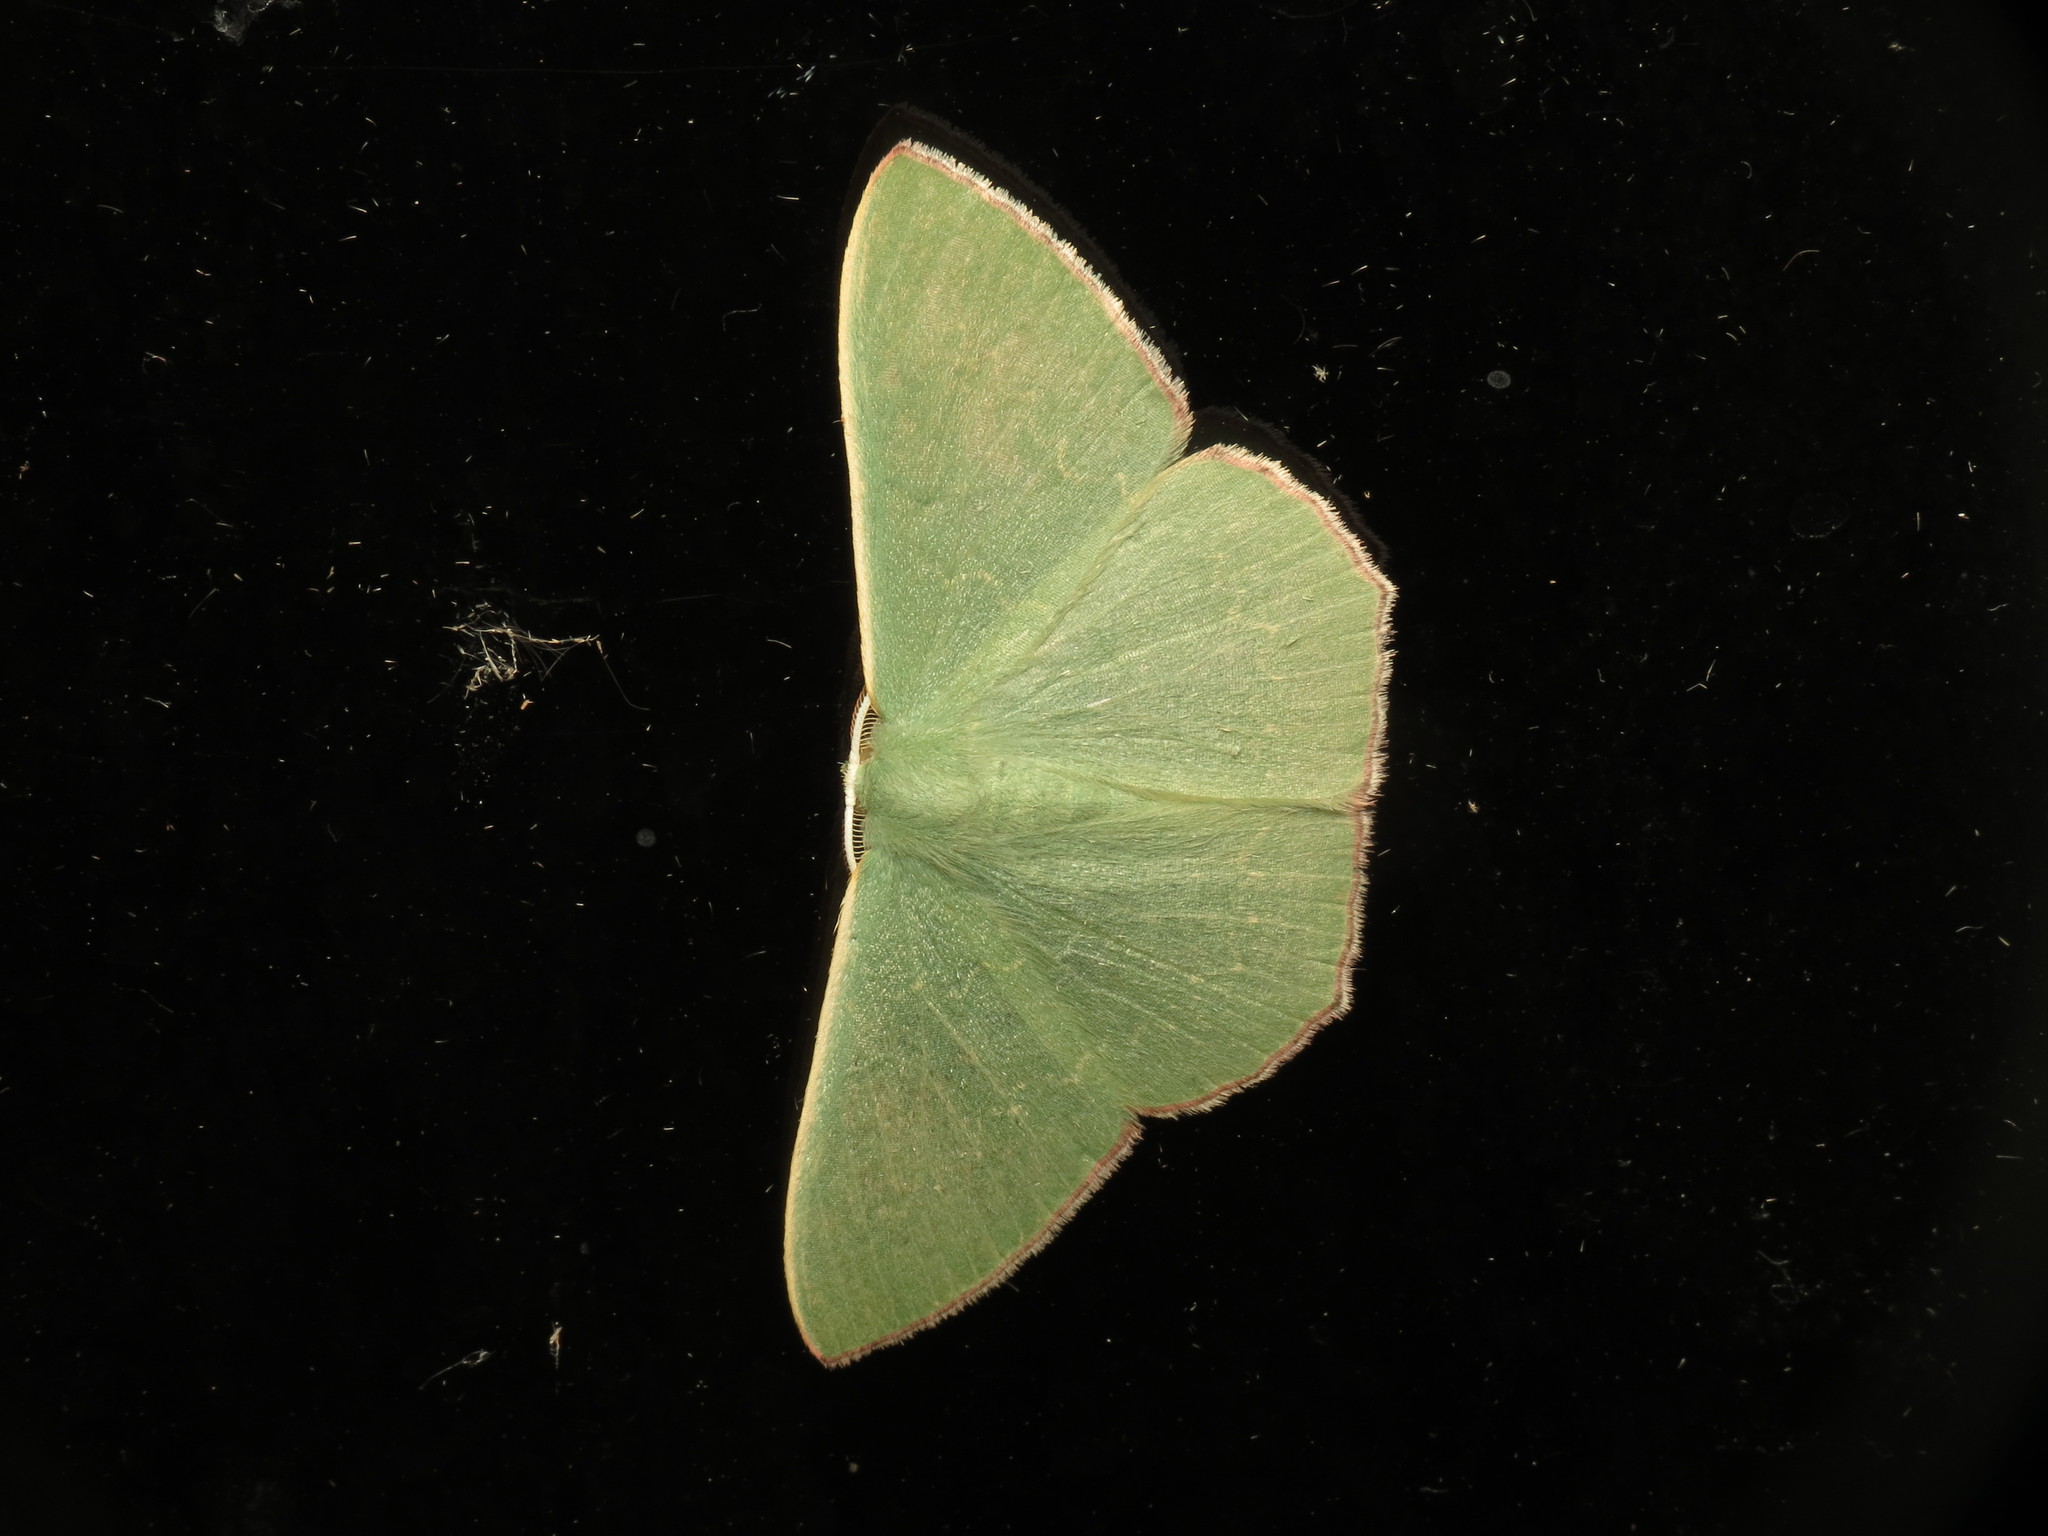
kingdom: Animalia
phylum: Arthropoda
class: Insecta
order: Lepidoptera
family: Geometridae
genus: Prasinocyma
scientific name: Prasinocyma semicrocea
